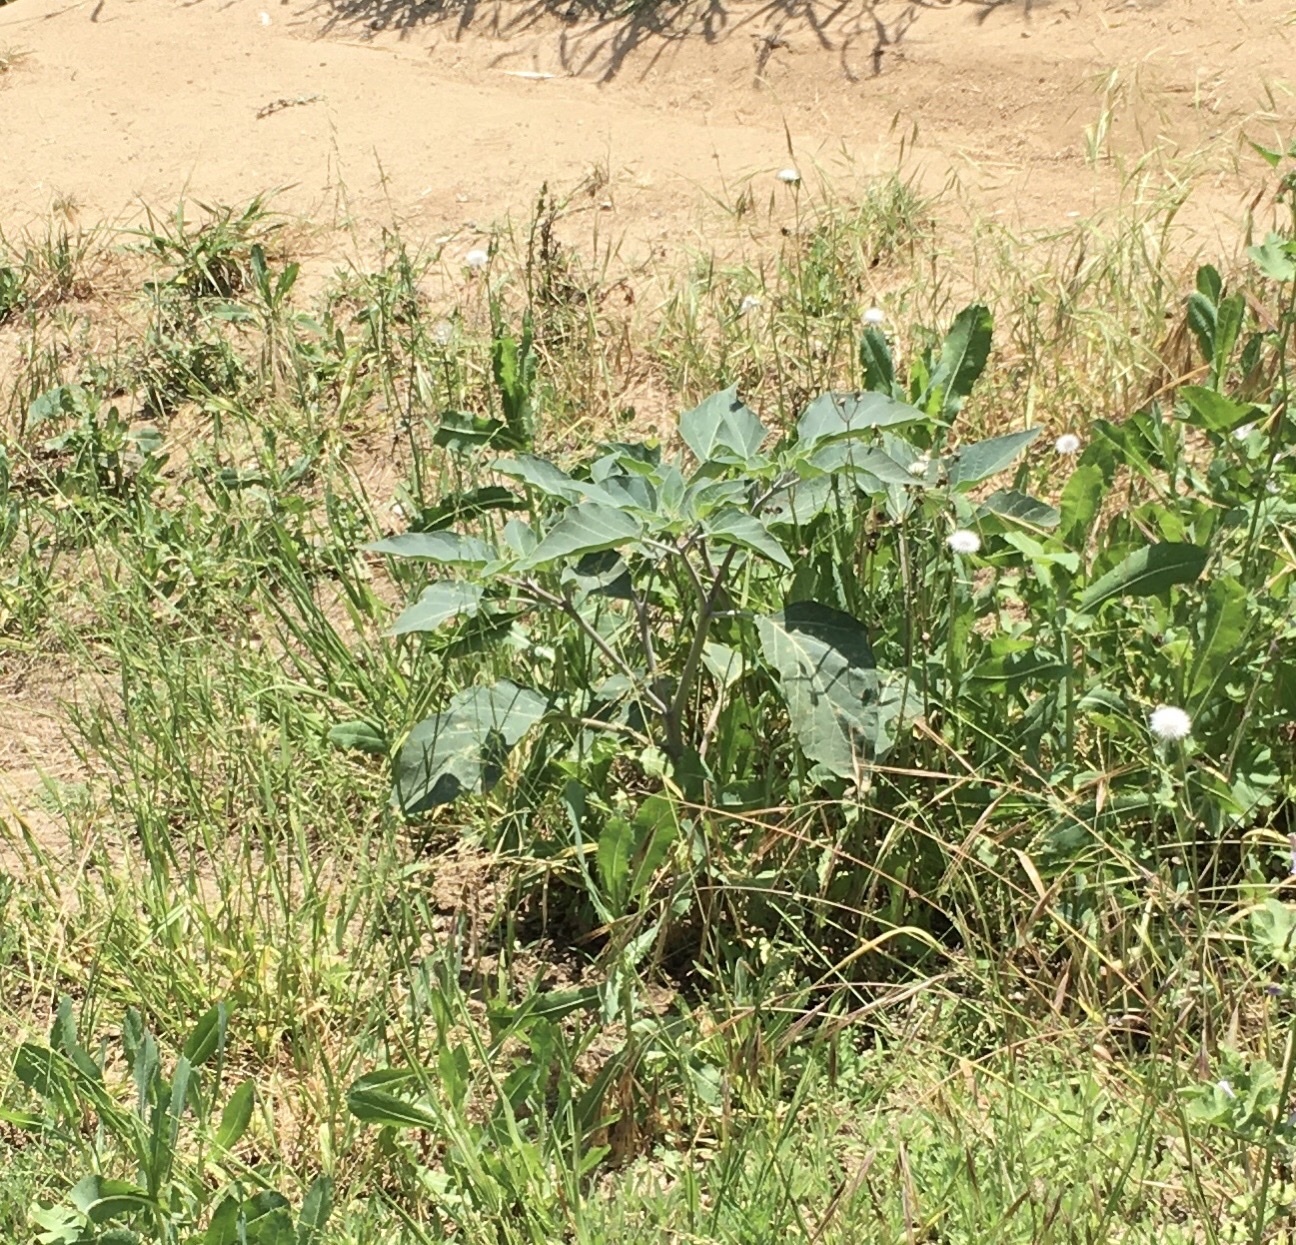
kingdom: Plantae
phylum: Tracheophyta
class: Magnoliopsida
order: Solanales
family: Solanaceae
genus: Datura
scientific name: Datura wrightii
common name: Sacred thorn-apple
